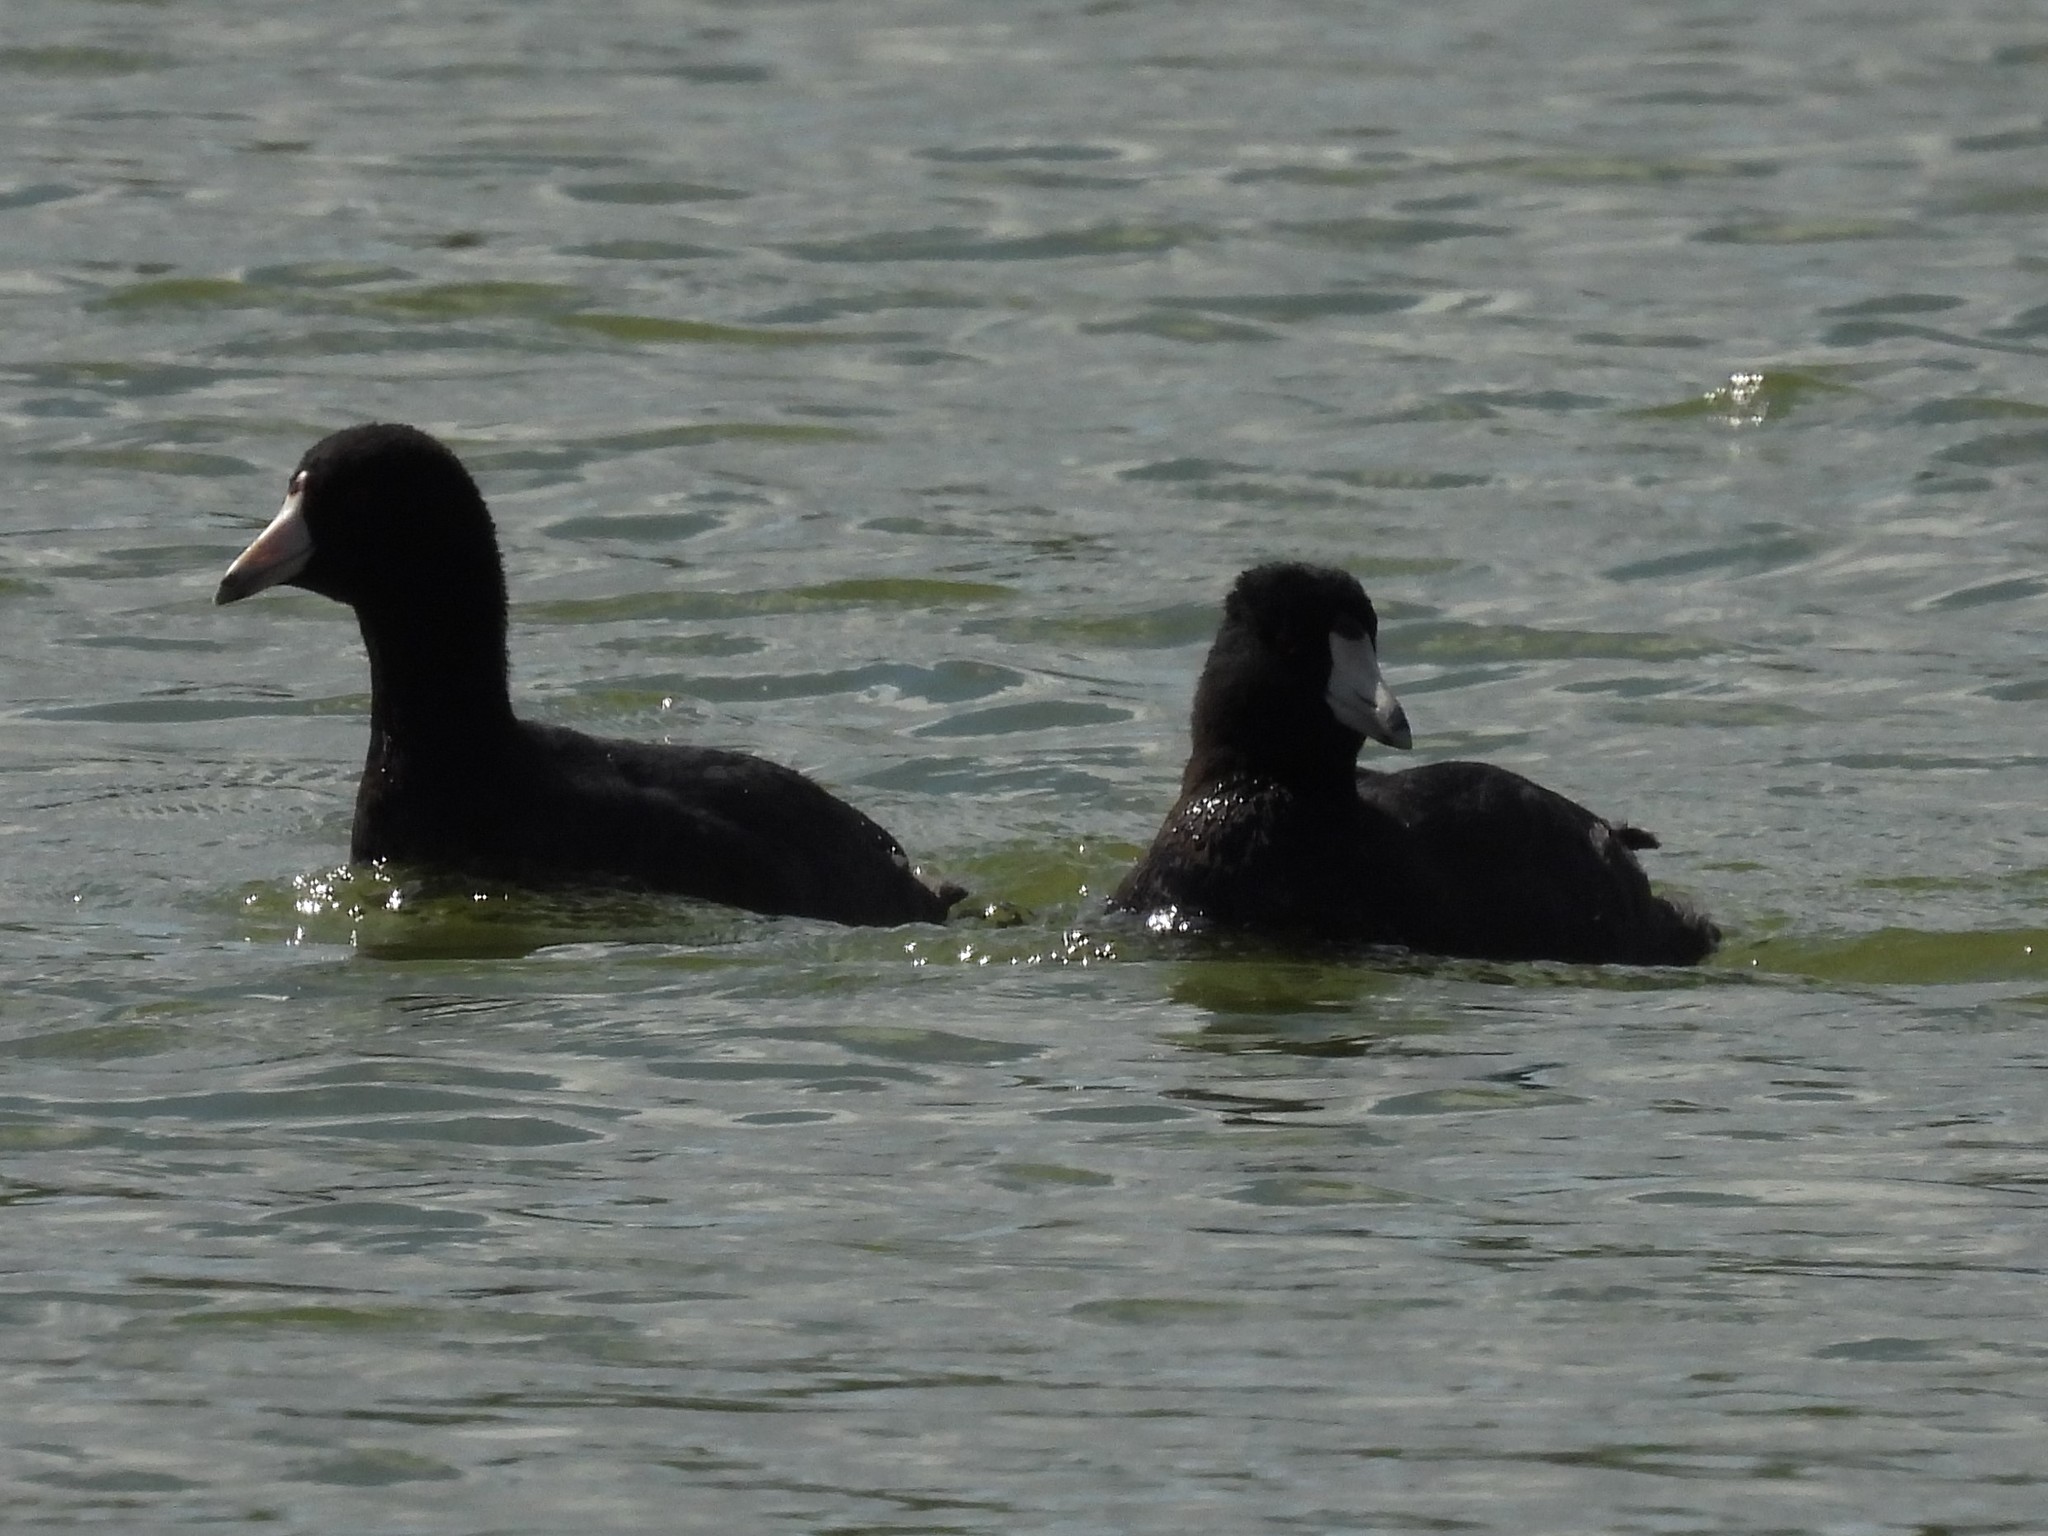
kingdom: Animalia
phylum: Chordata
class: Aves
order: Gruiformes
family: Rallidae
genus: Fulica
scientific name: Fulica americana
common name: American coot
